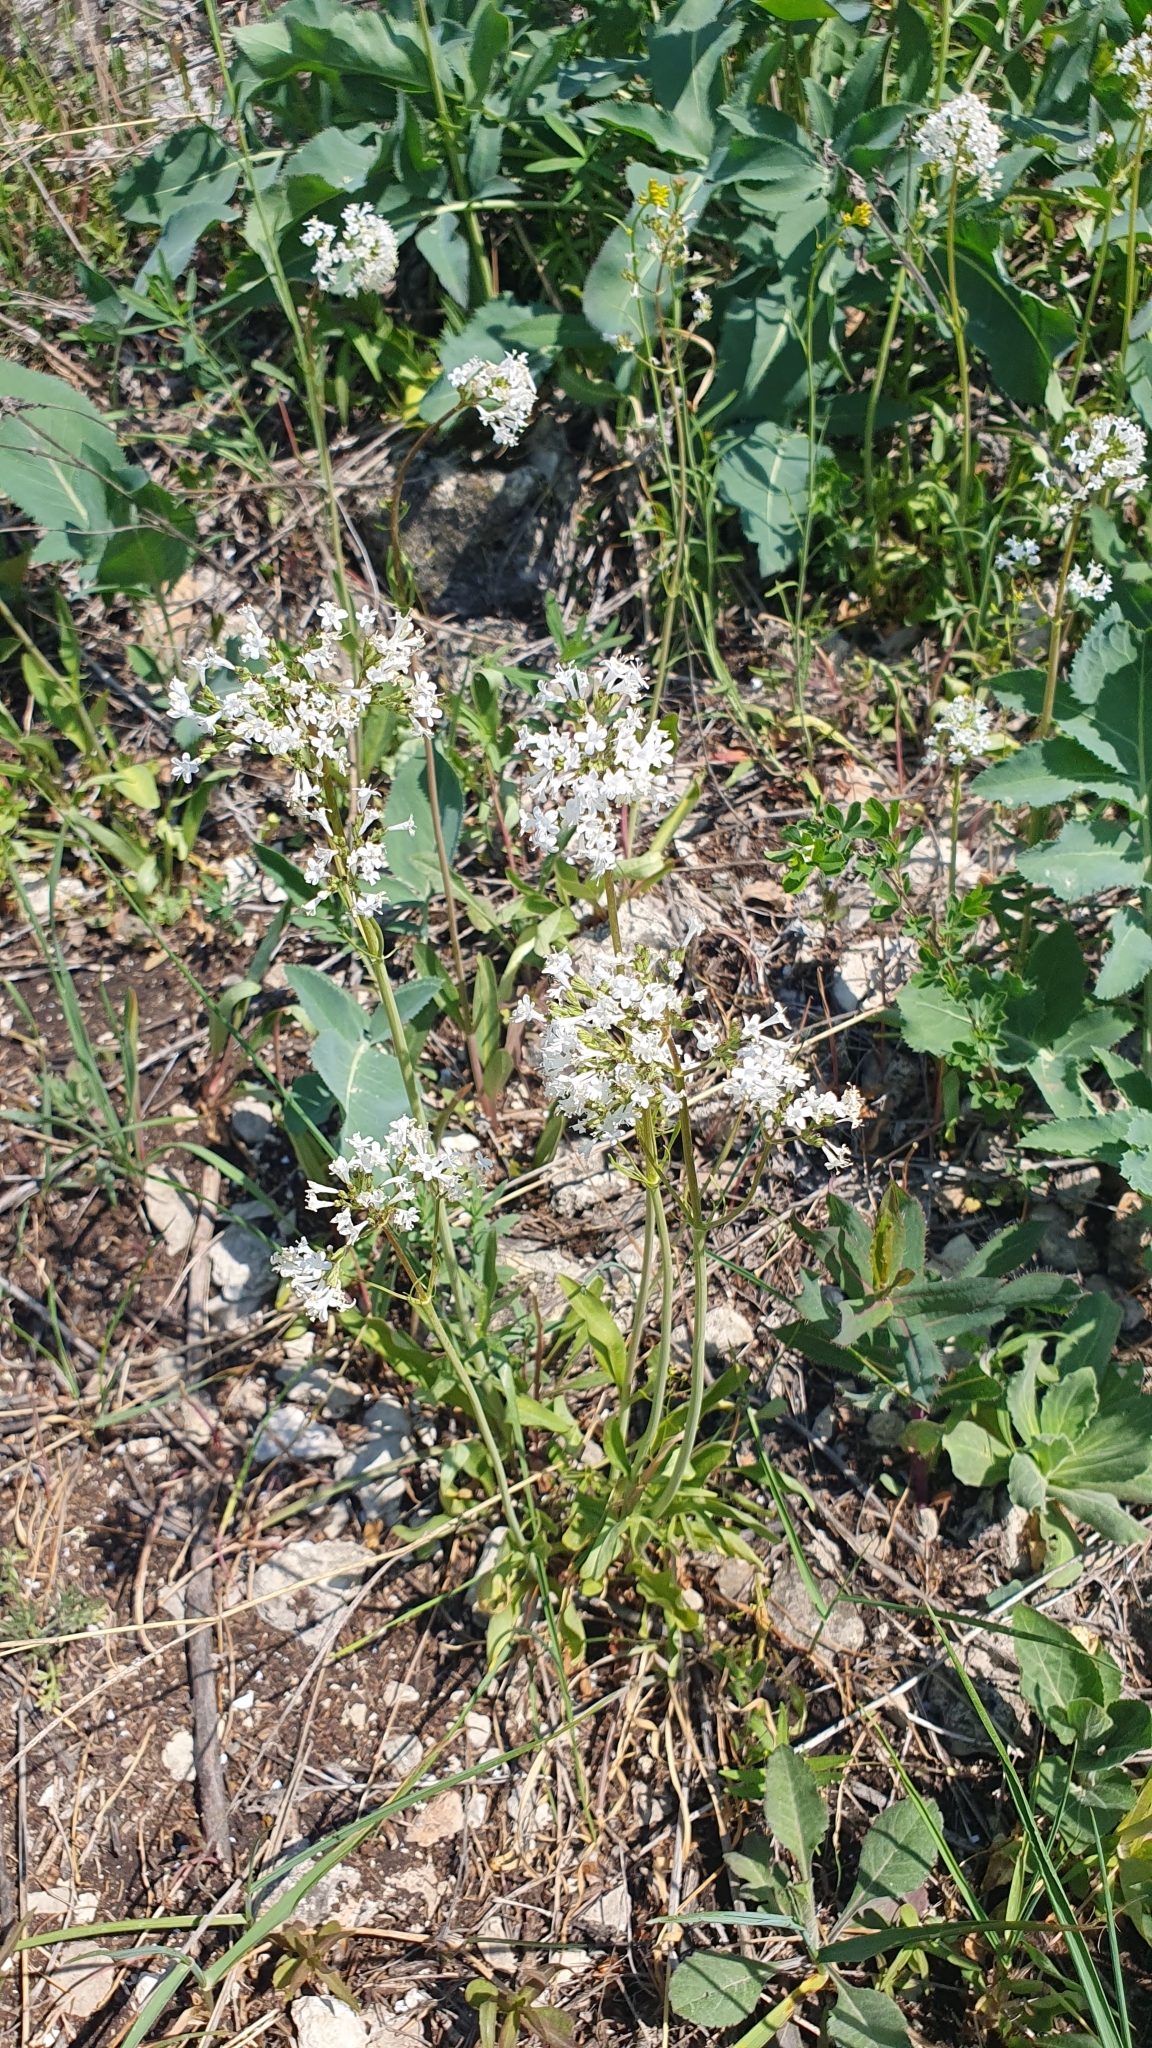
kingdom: Plantae
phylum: Tracheophyta
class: Magnoliopsida
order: Dipsacales
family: Caprifoliaceae
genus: Valeriana
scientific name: Valeriana tuberosa
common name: Tuberous valerian
